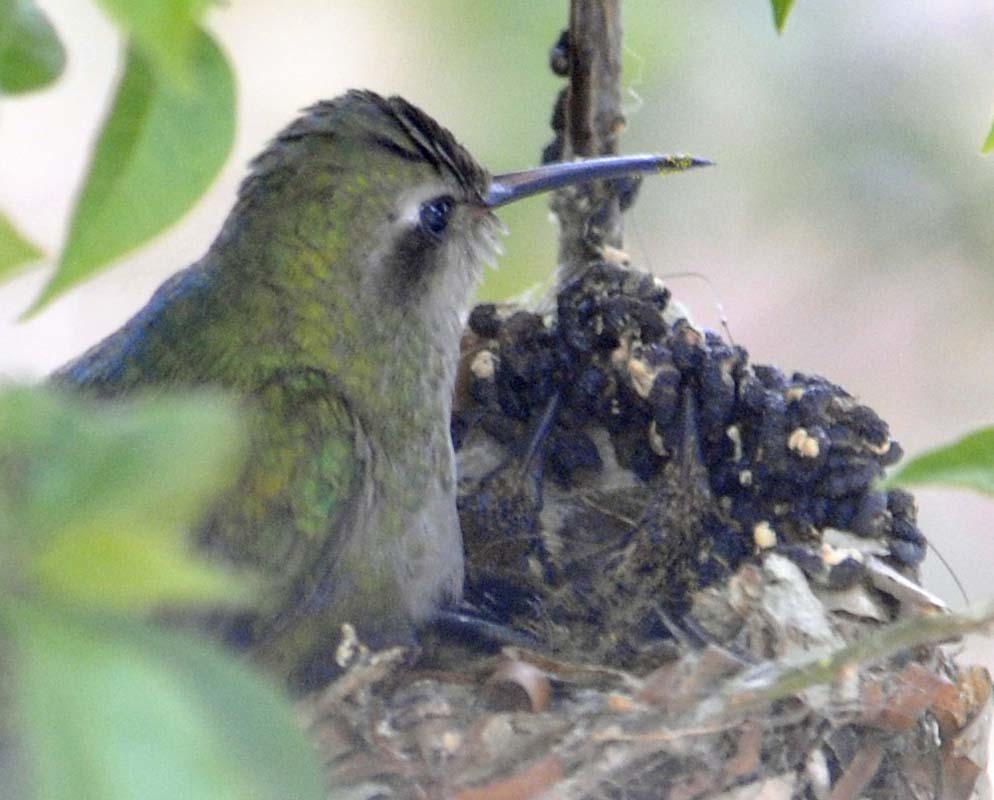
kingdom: Animalia
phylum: Chordata
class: Aves
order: Apodiformes
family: Trochilidae
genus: Cynanthus
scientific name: Cynanthus latirostris
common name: Broad-billed hummingbird
